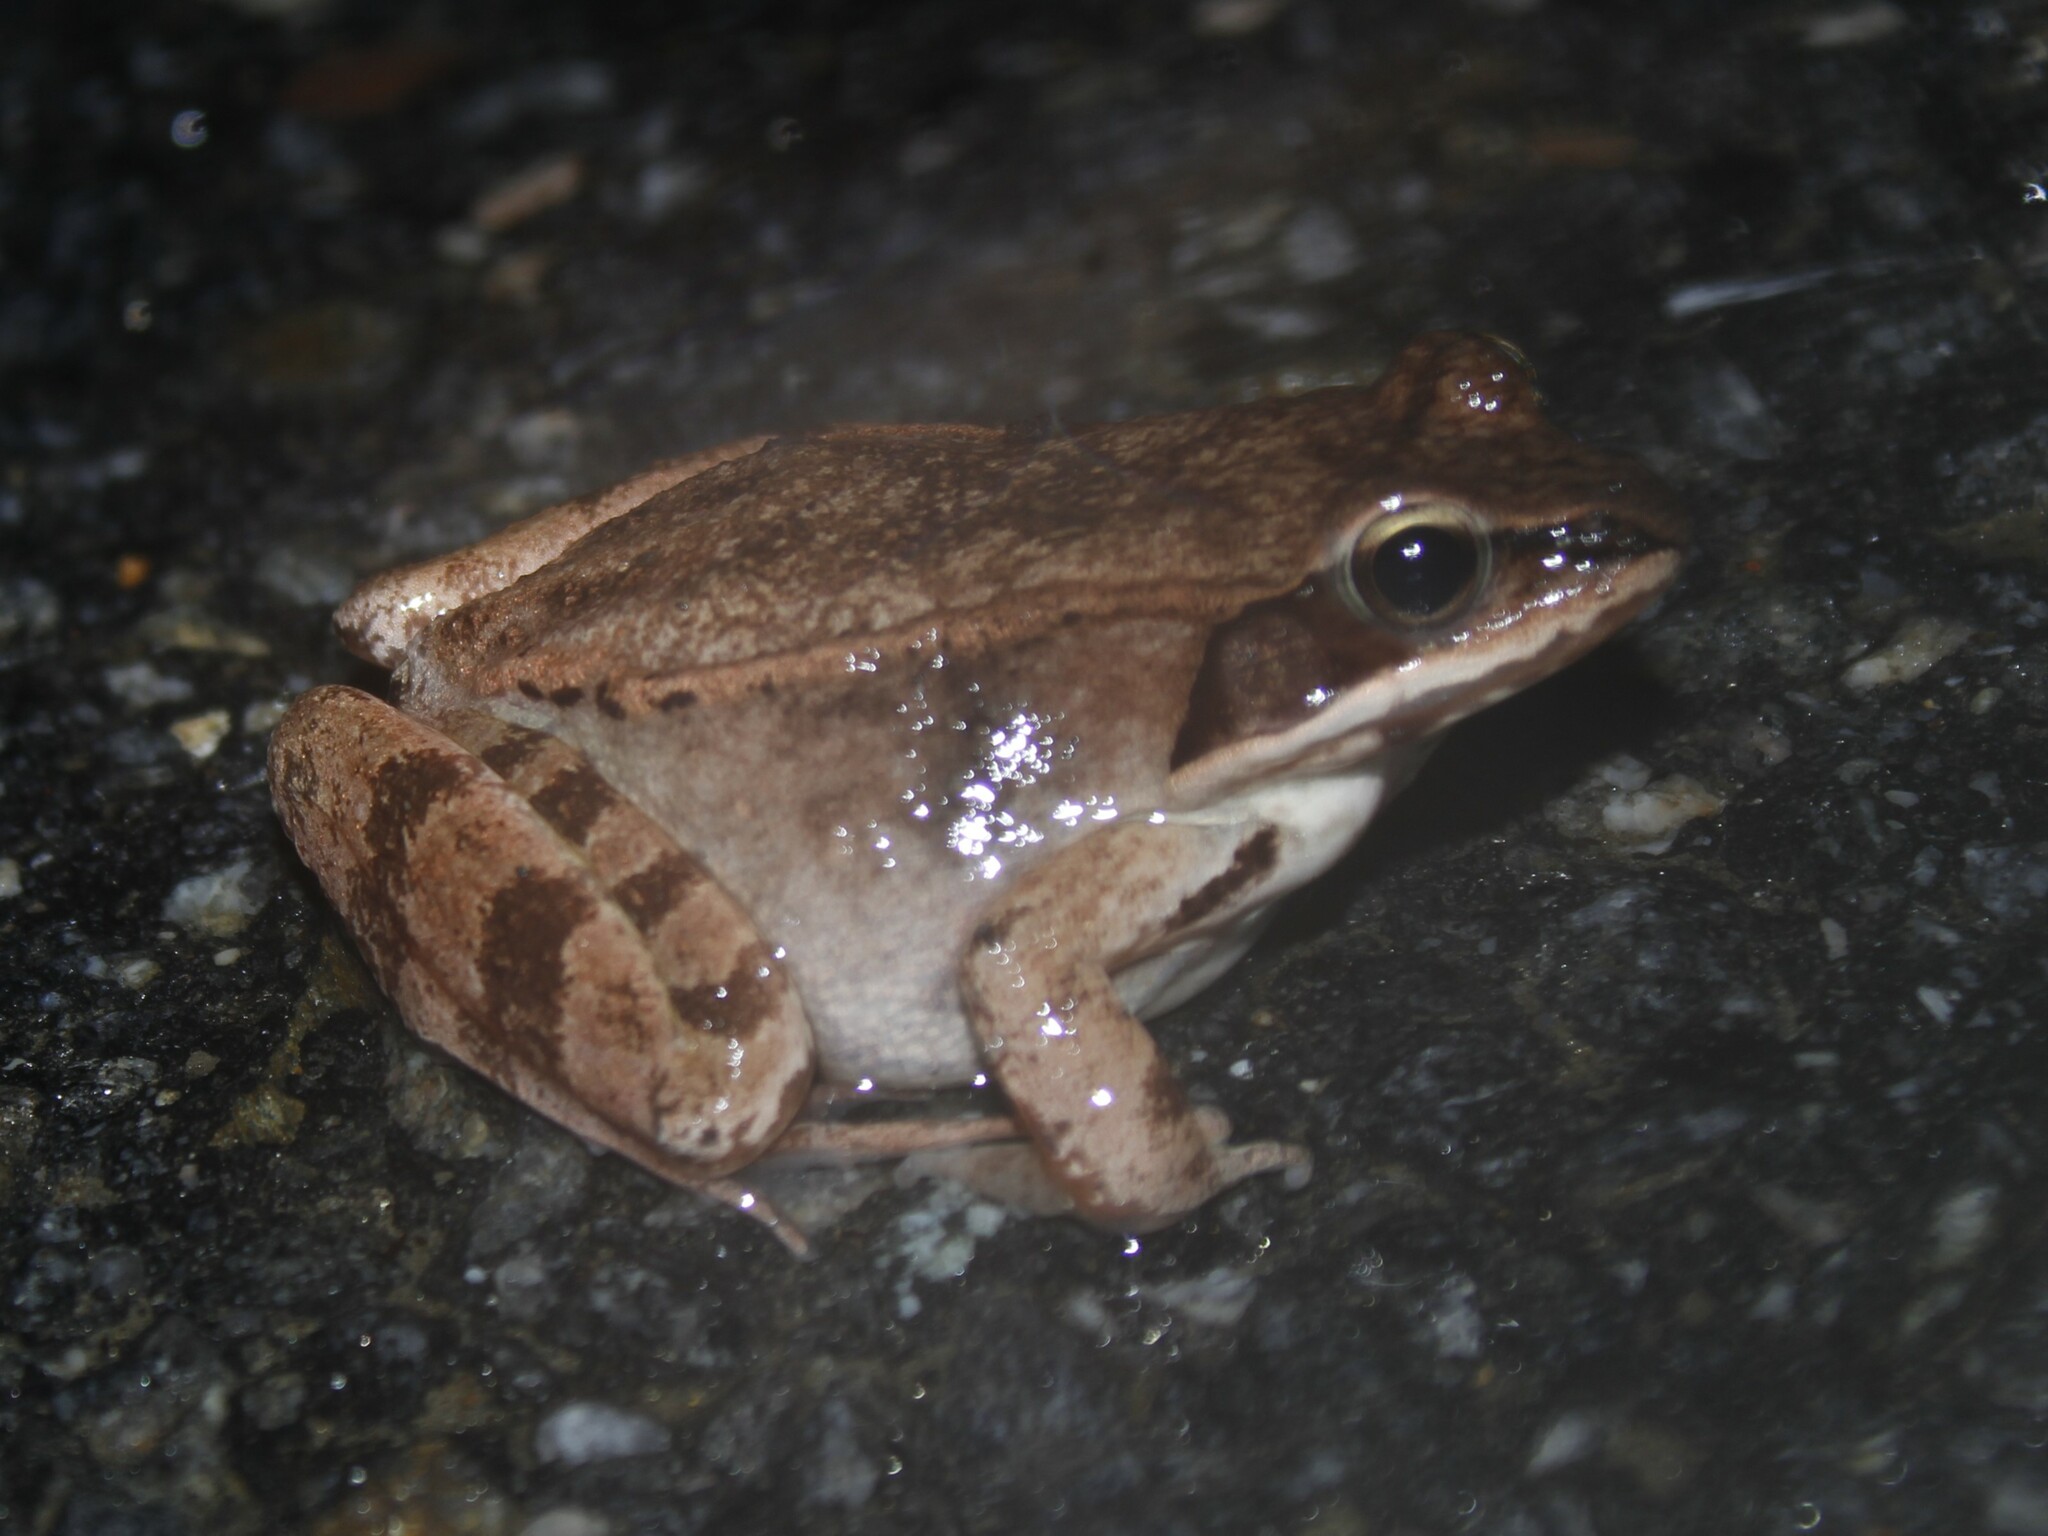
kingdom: Animalia
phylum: Chordata
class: Amphibia
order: Anura
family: Ranidae
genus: Lithobates
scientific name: Lithobates sylvaticus
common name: Wood frog
